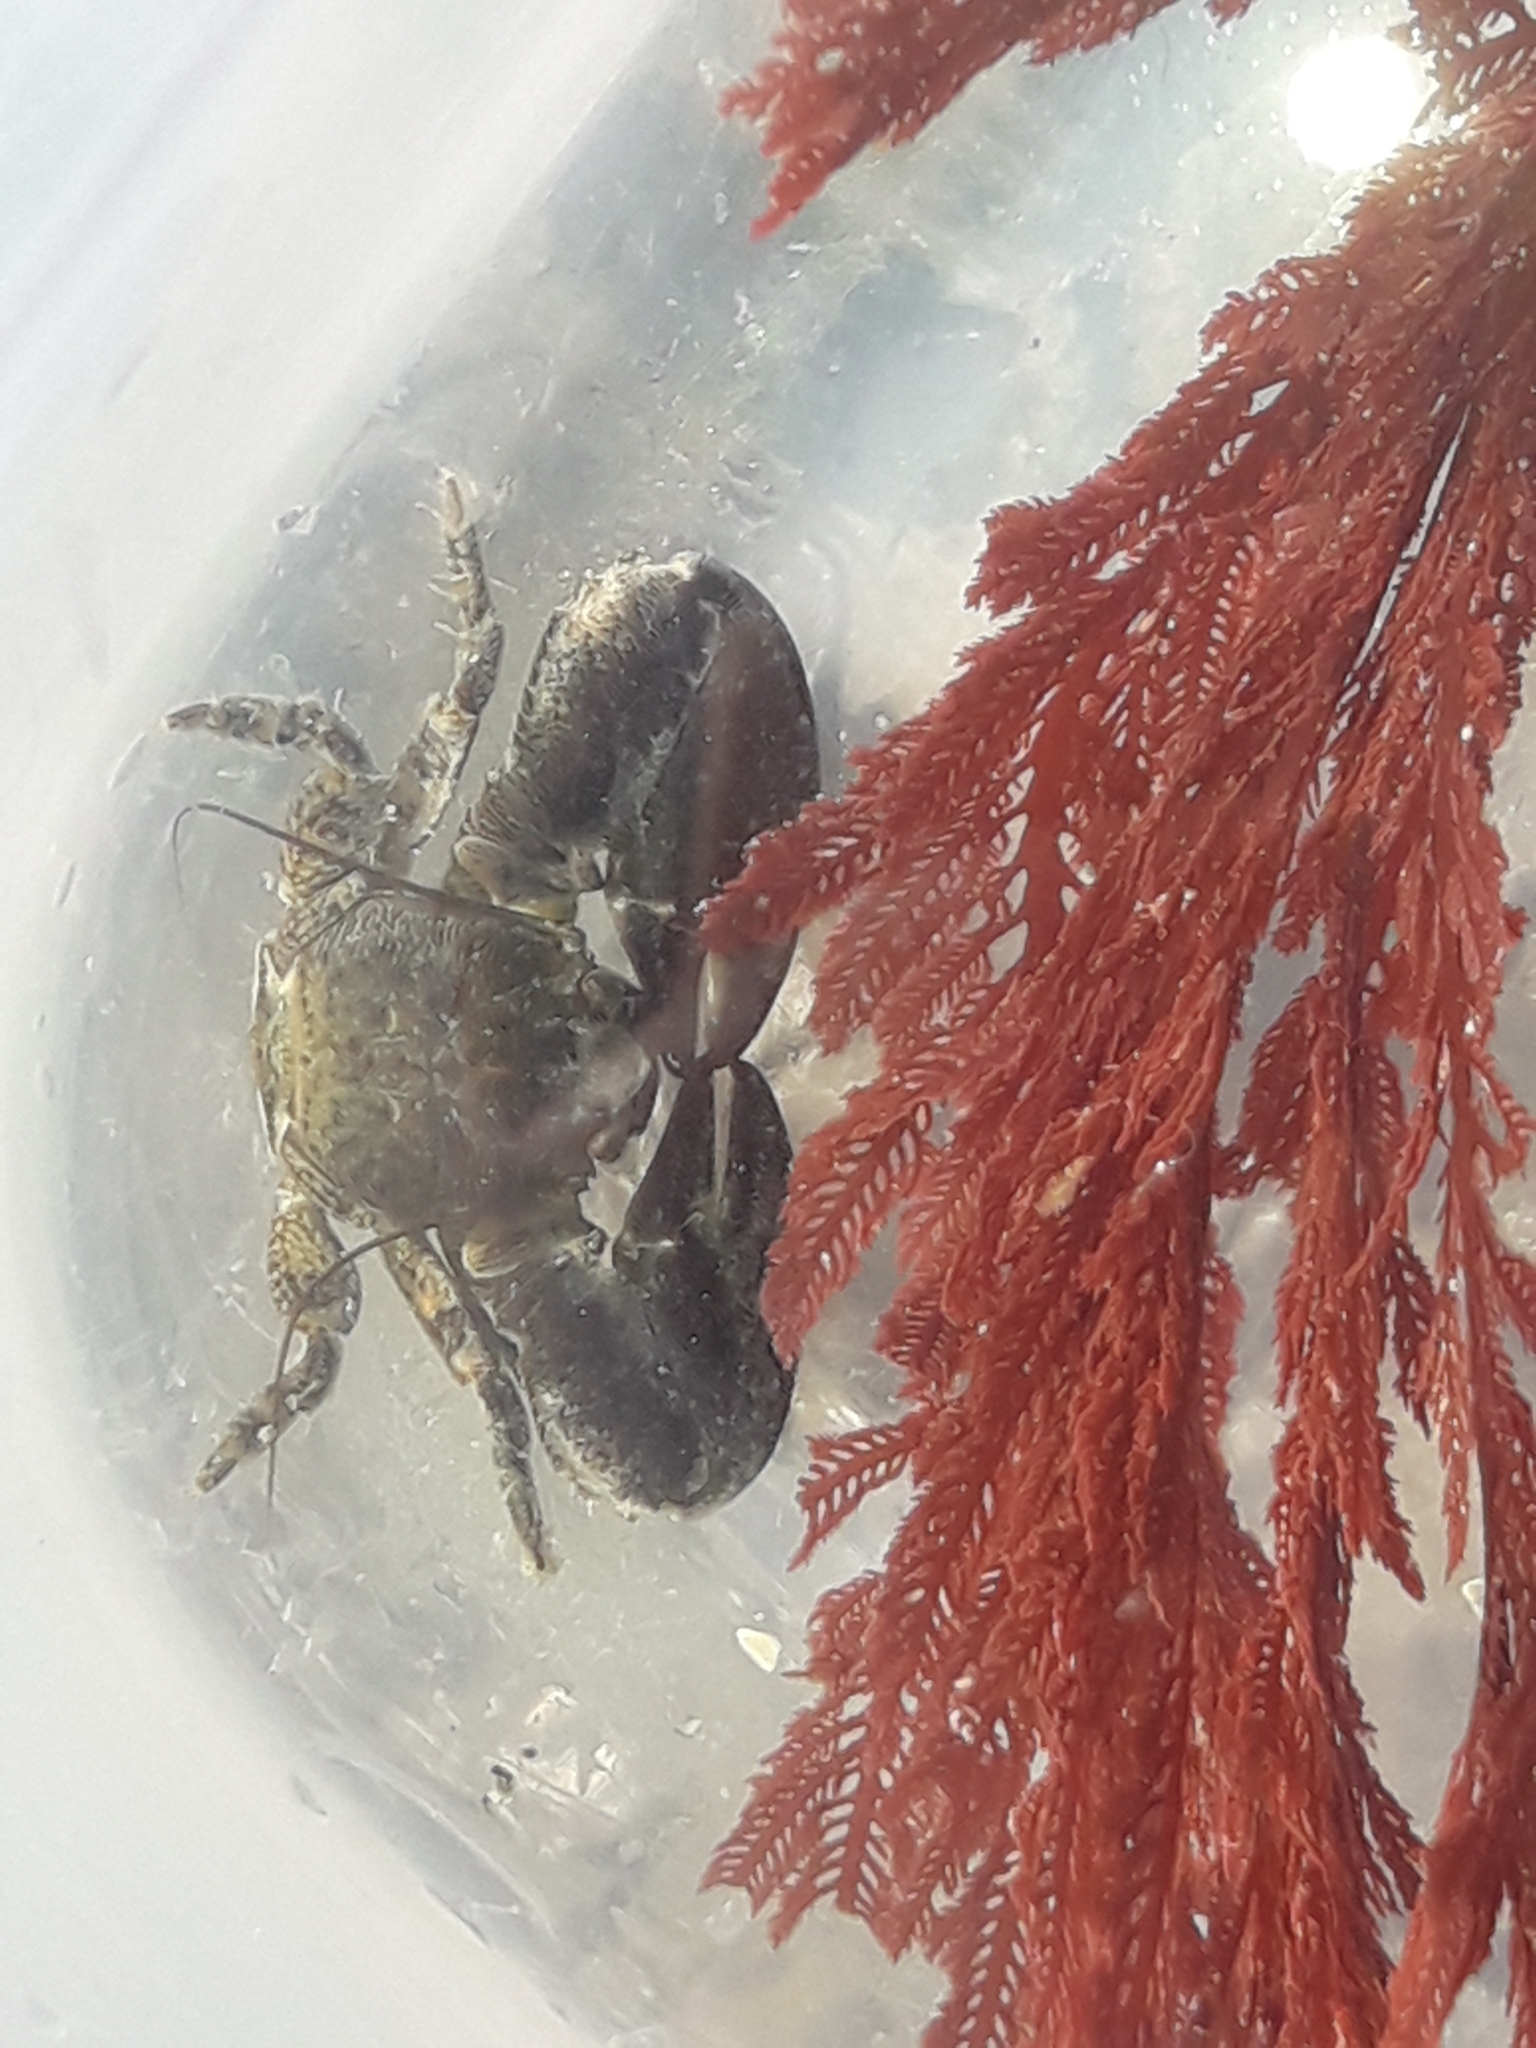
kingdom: Animalia
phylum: Arthropoda
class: Malacostraca
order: Decapoda
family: Porcellanidae
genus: Petrolisthes
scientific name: Petrolisthes elongatus
